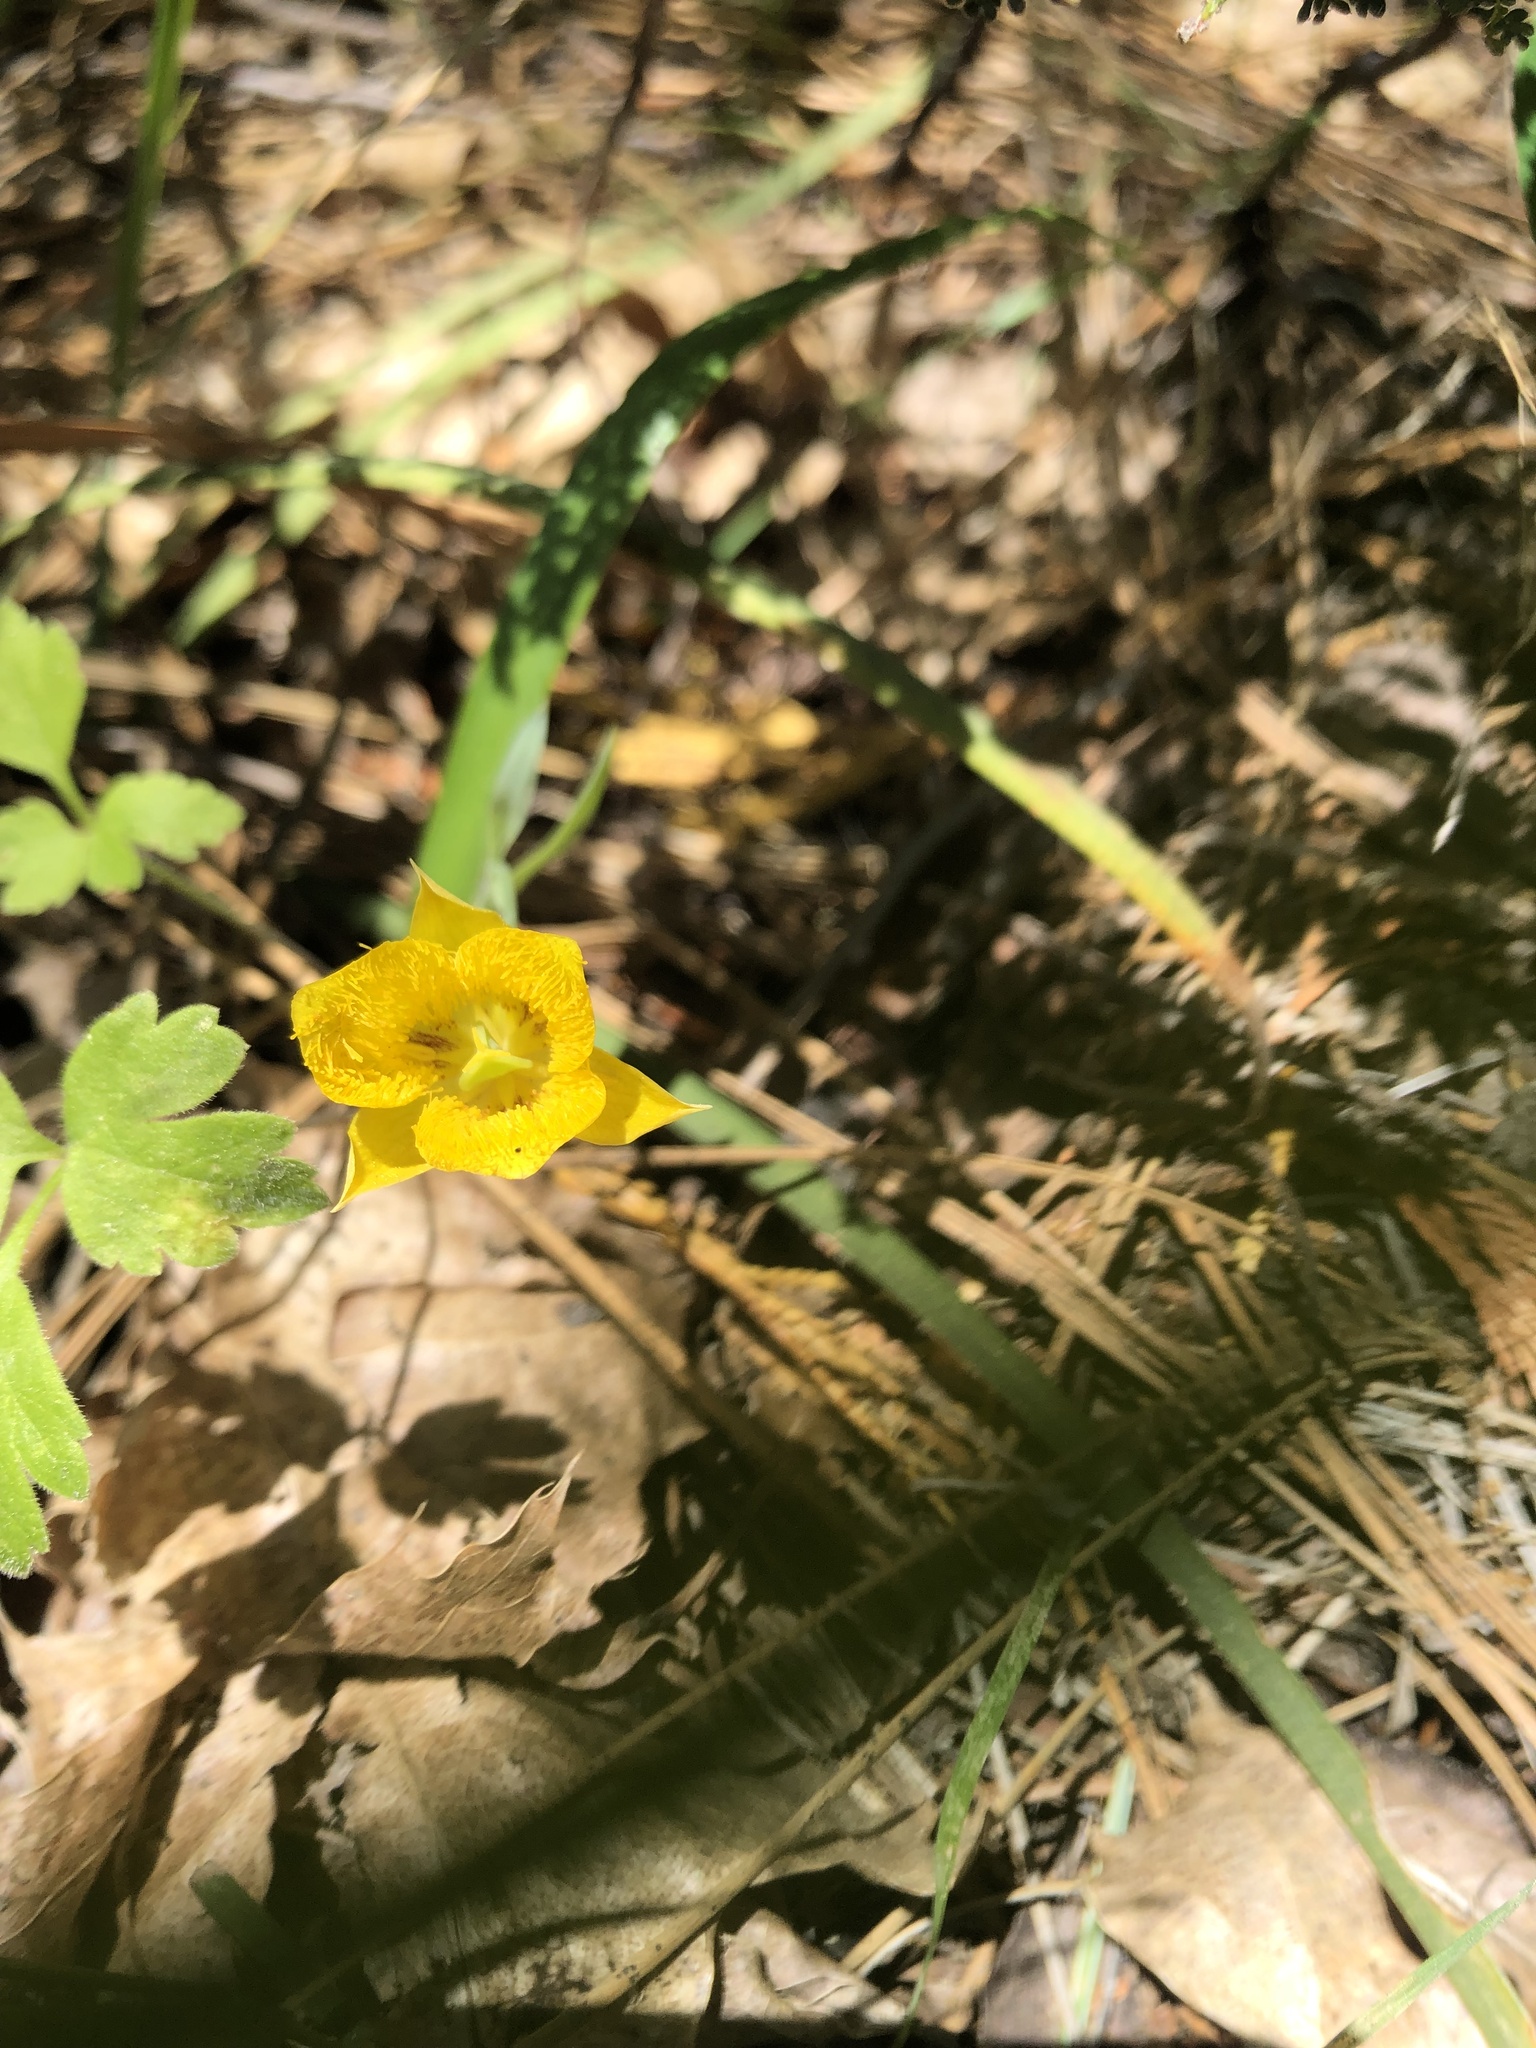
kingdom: Plantae
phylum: Tracheophyta
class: Liliopsida
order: Liliales
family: Liliaceae
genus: Calochortus
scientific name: Calochortus monophyllus
